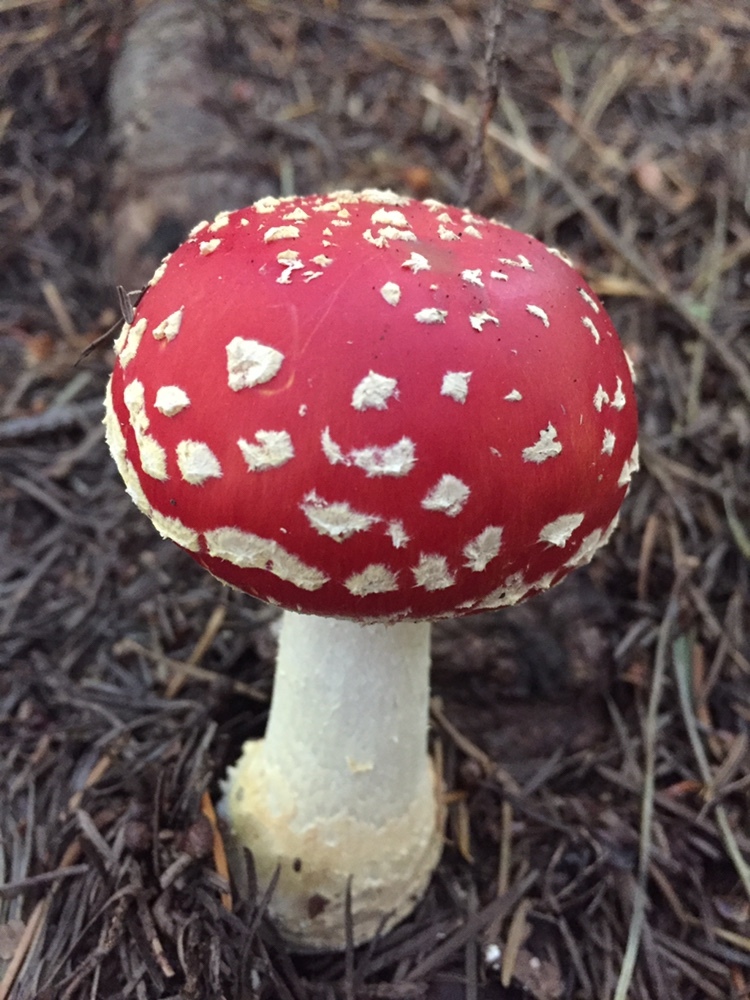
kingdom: Fungi
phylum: Basidiomycota
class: Agaricomycetes
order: Agaricales
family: Amanitaceae
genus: Amanita
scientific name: Amanita muscaria
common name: Fly agaric
